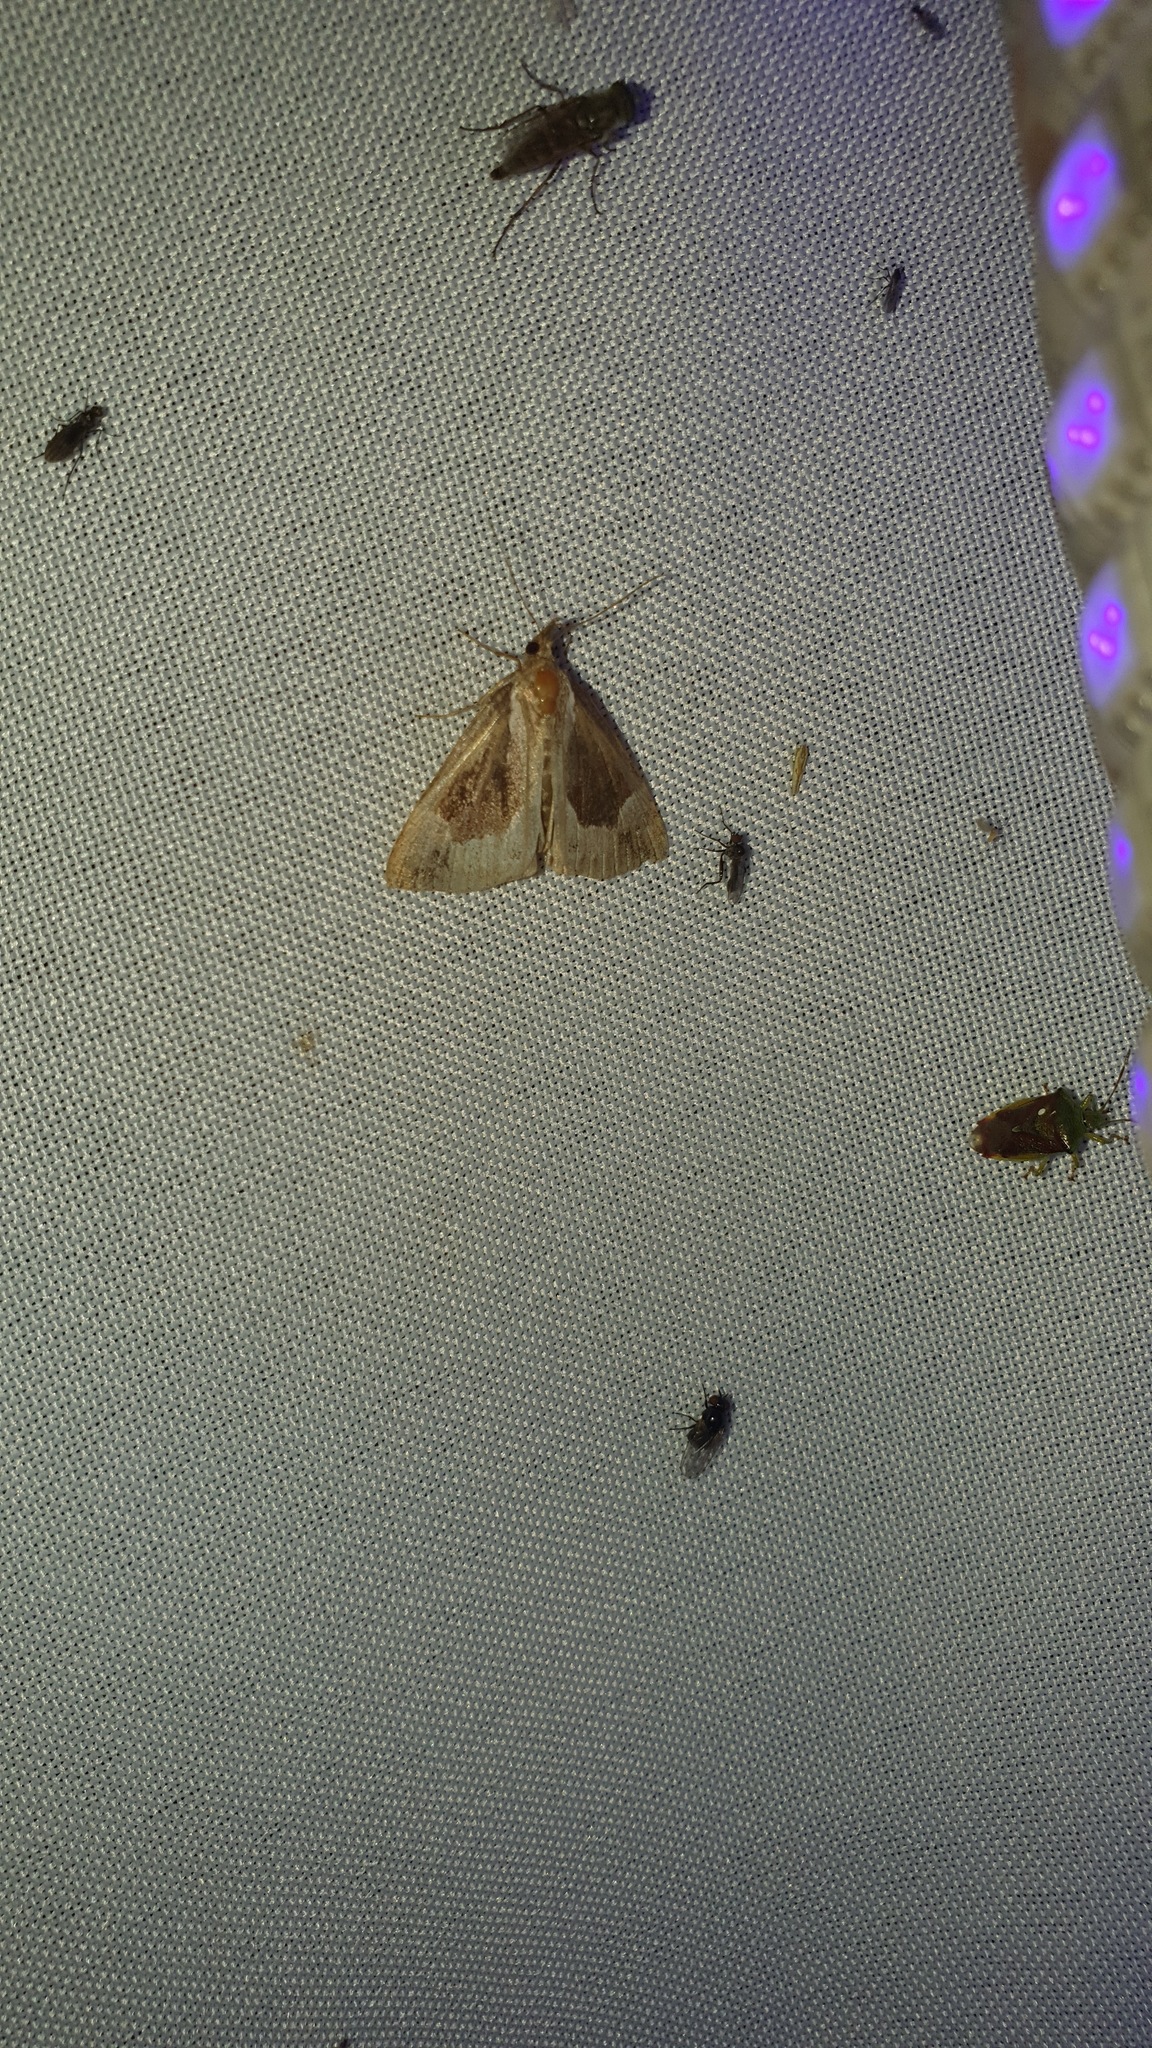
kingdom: Animalia
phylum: Arthropoda
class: Insecta
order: Lepidoptera
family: Erebidae
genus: Hypena
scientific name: Hypena crassalis
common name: Beautiful snout
